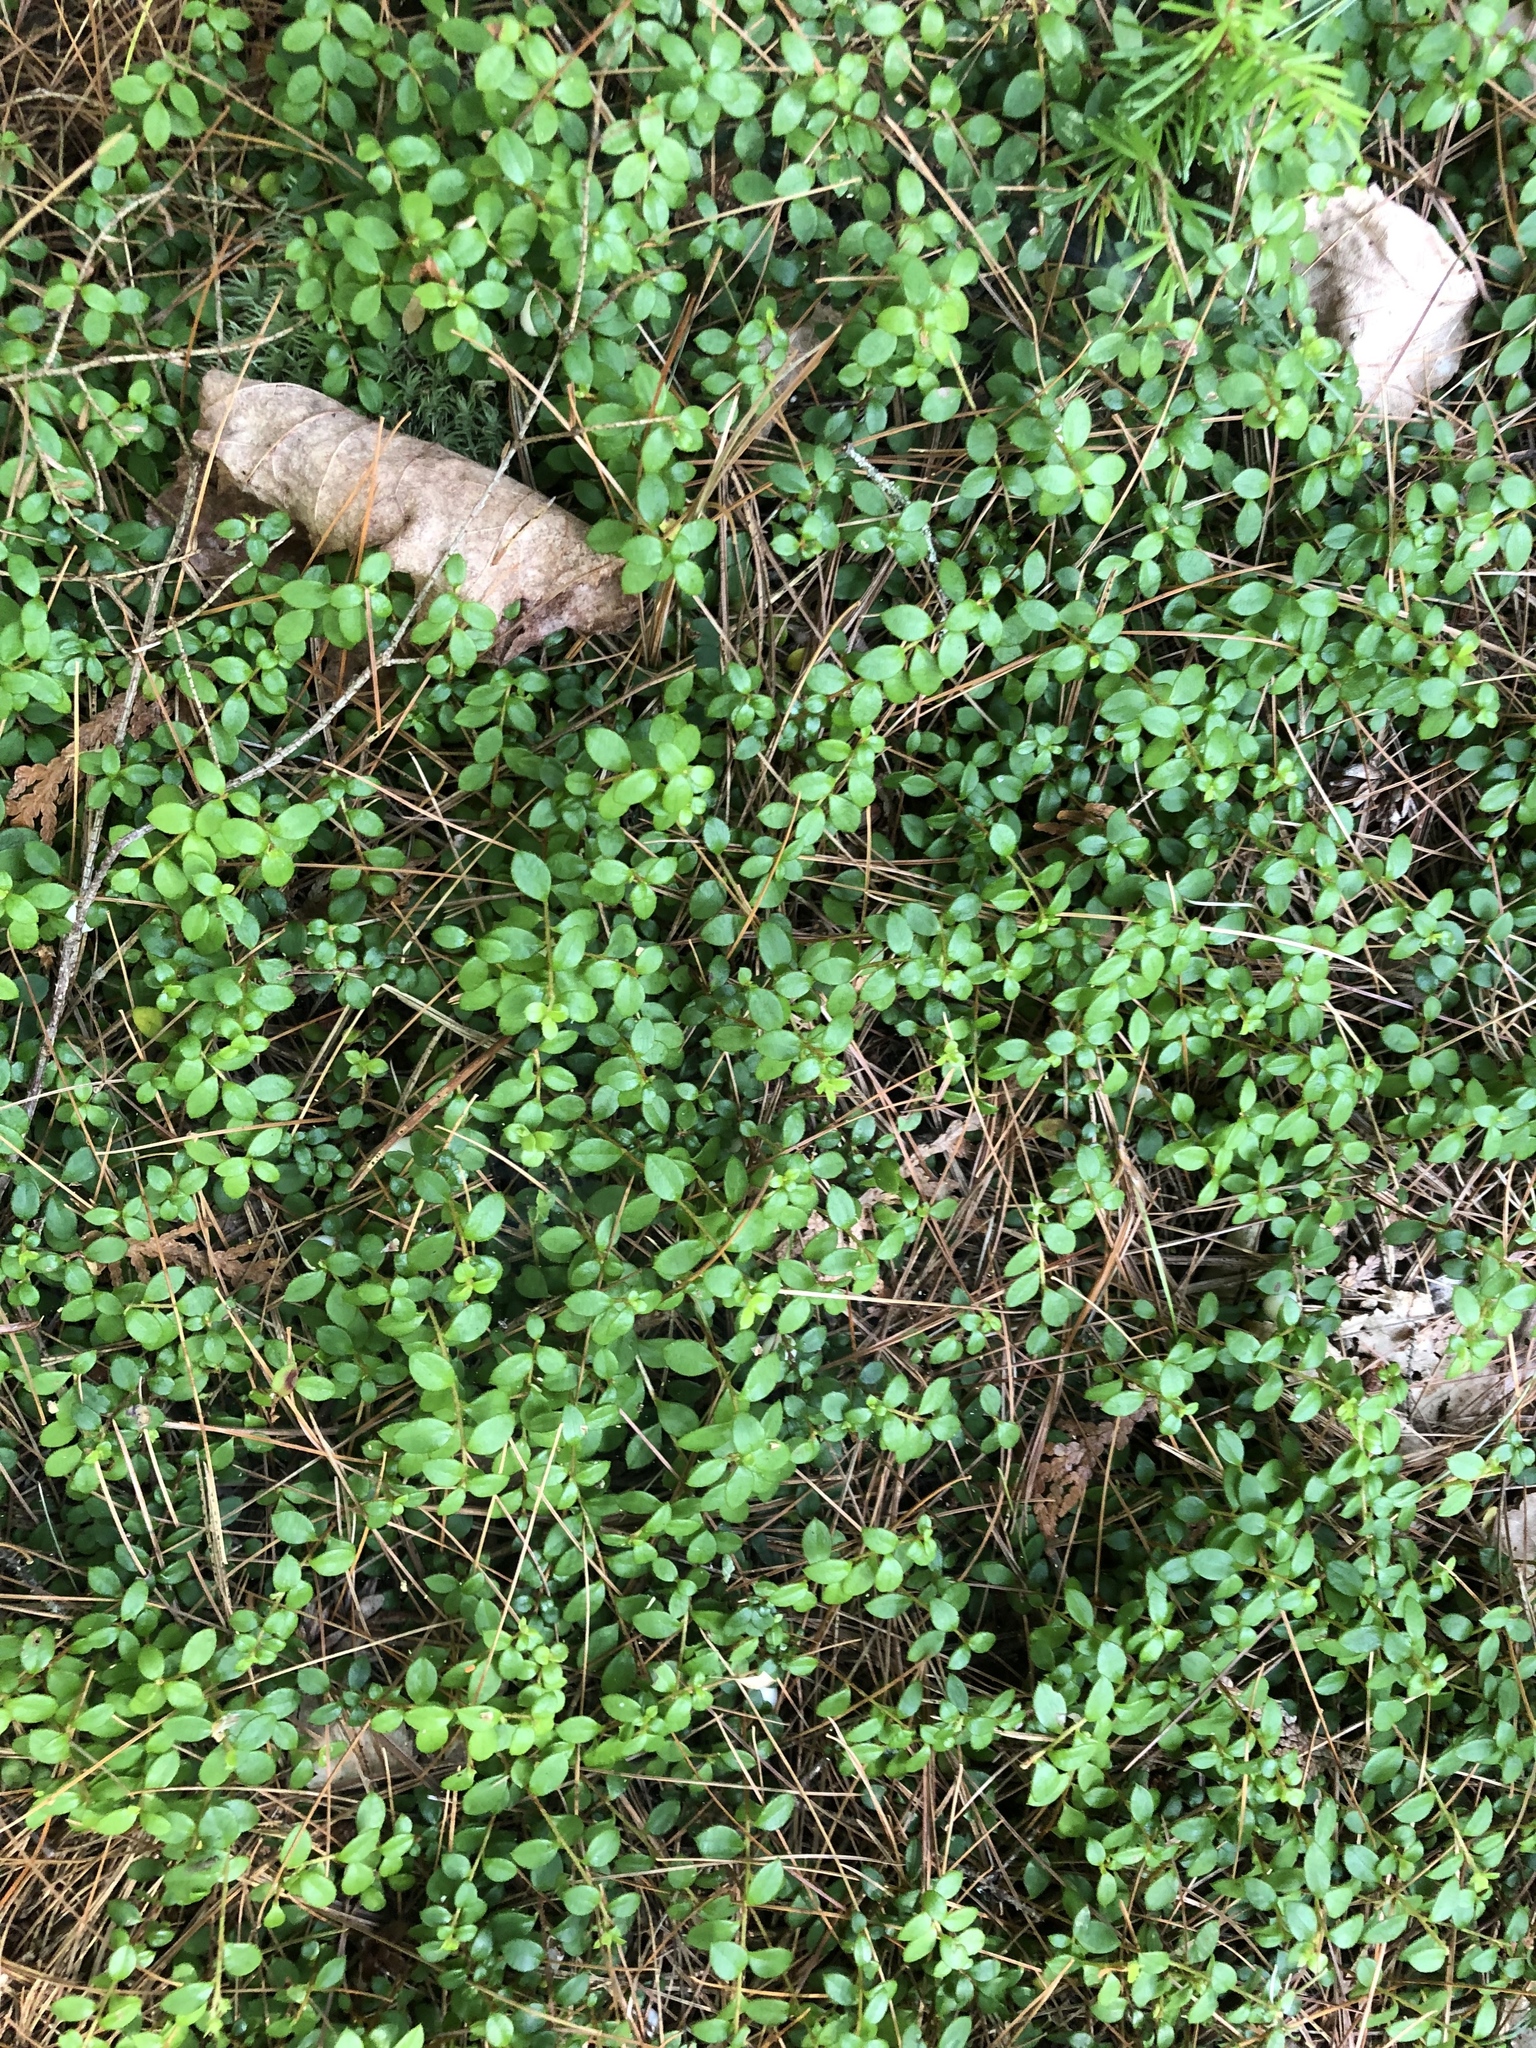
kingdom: Plantae
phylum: Tracheophyta
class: Magnoliopsida
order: Ericales
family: Ericaceae
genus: Gaultheria
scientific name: Gaultheria hispidula
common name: Cancer wintergreen
